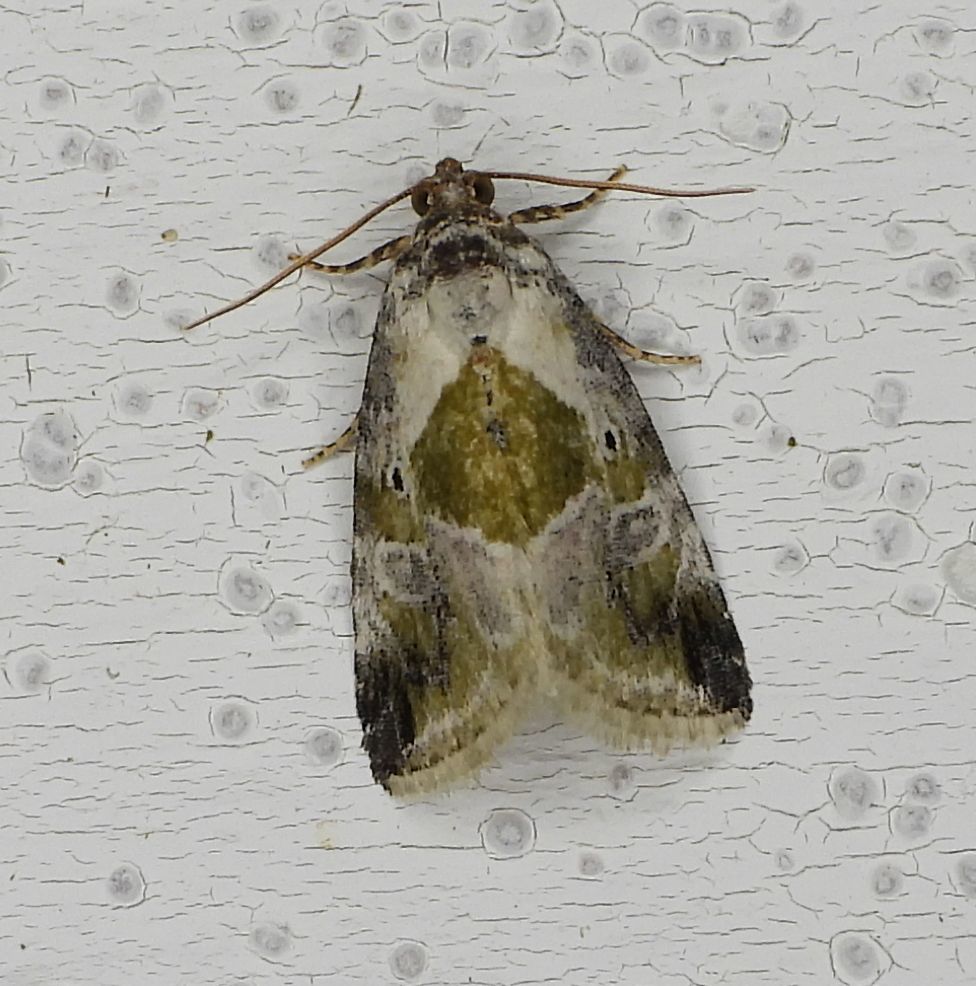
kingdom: Animalia
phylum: Arthropoda
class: Insecta
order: Lepidoptera
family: Noctuidae
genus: Maliattha
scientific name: Maliattha synochitis
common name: Black-dotted glyph
